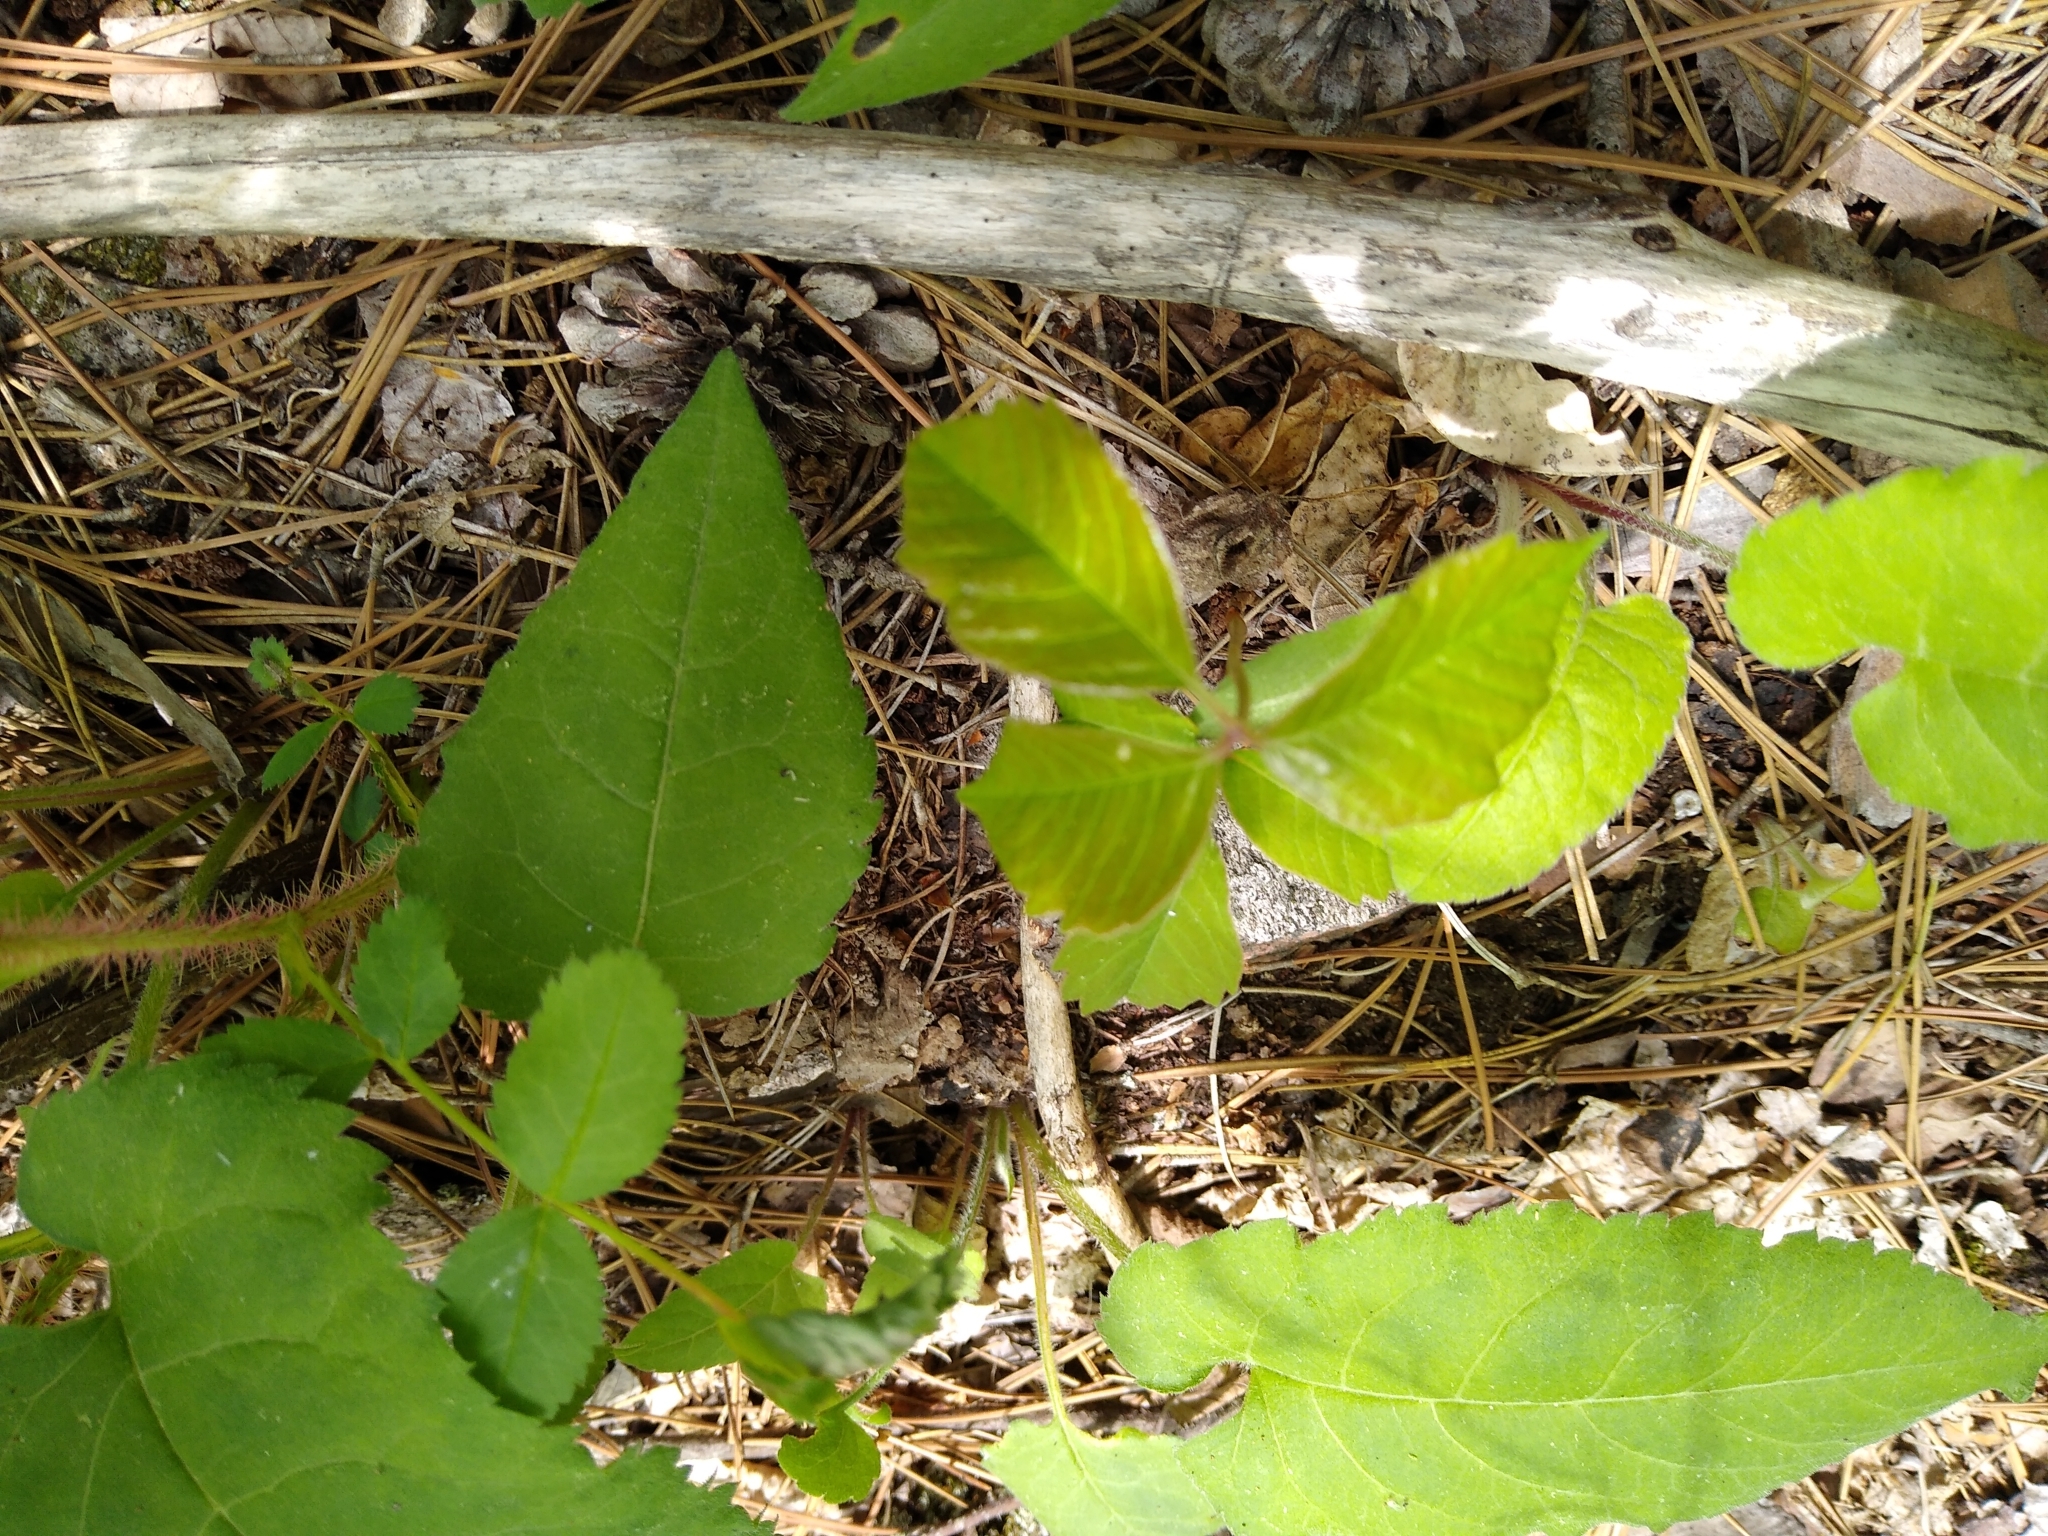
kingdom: Plantae
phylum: Tracheophyta
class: Magnoliopsida
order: Sapindales
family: Anacardiaceae
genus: Toxicodendron
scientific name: Toxicodendron rydbergii
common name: Rydberg's poison-ivy
